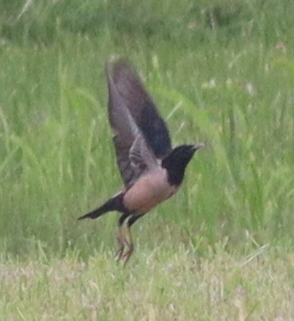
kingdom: Animalia
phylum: Chordata
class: Aves
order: Passeriformes
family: Sturnidae
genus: Pastor
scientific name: Pastor roseus
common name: Rosy starling
